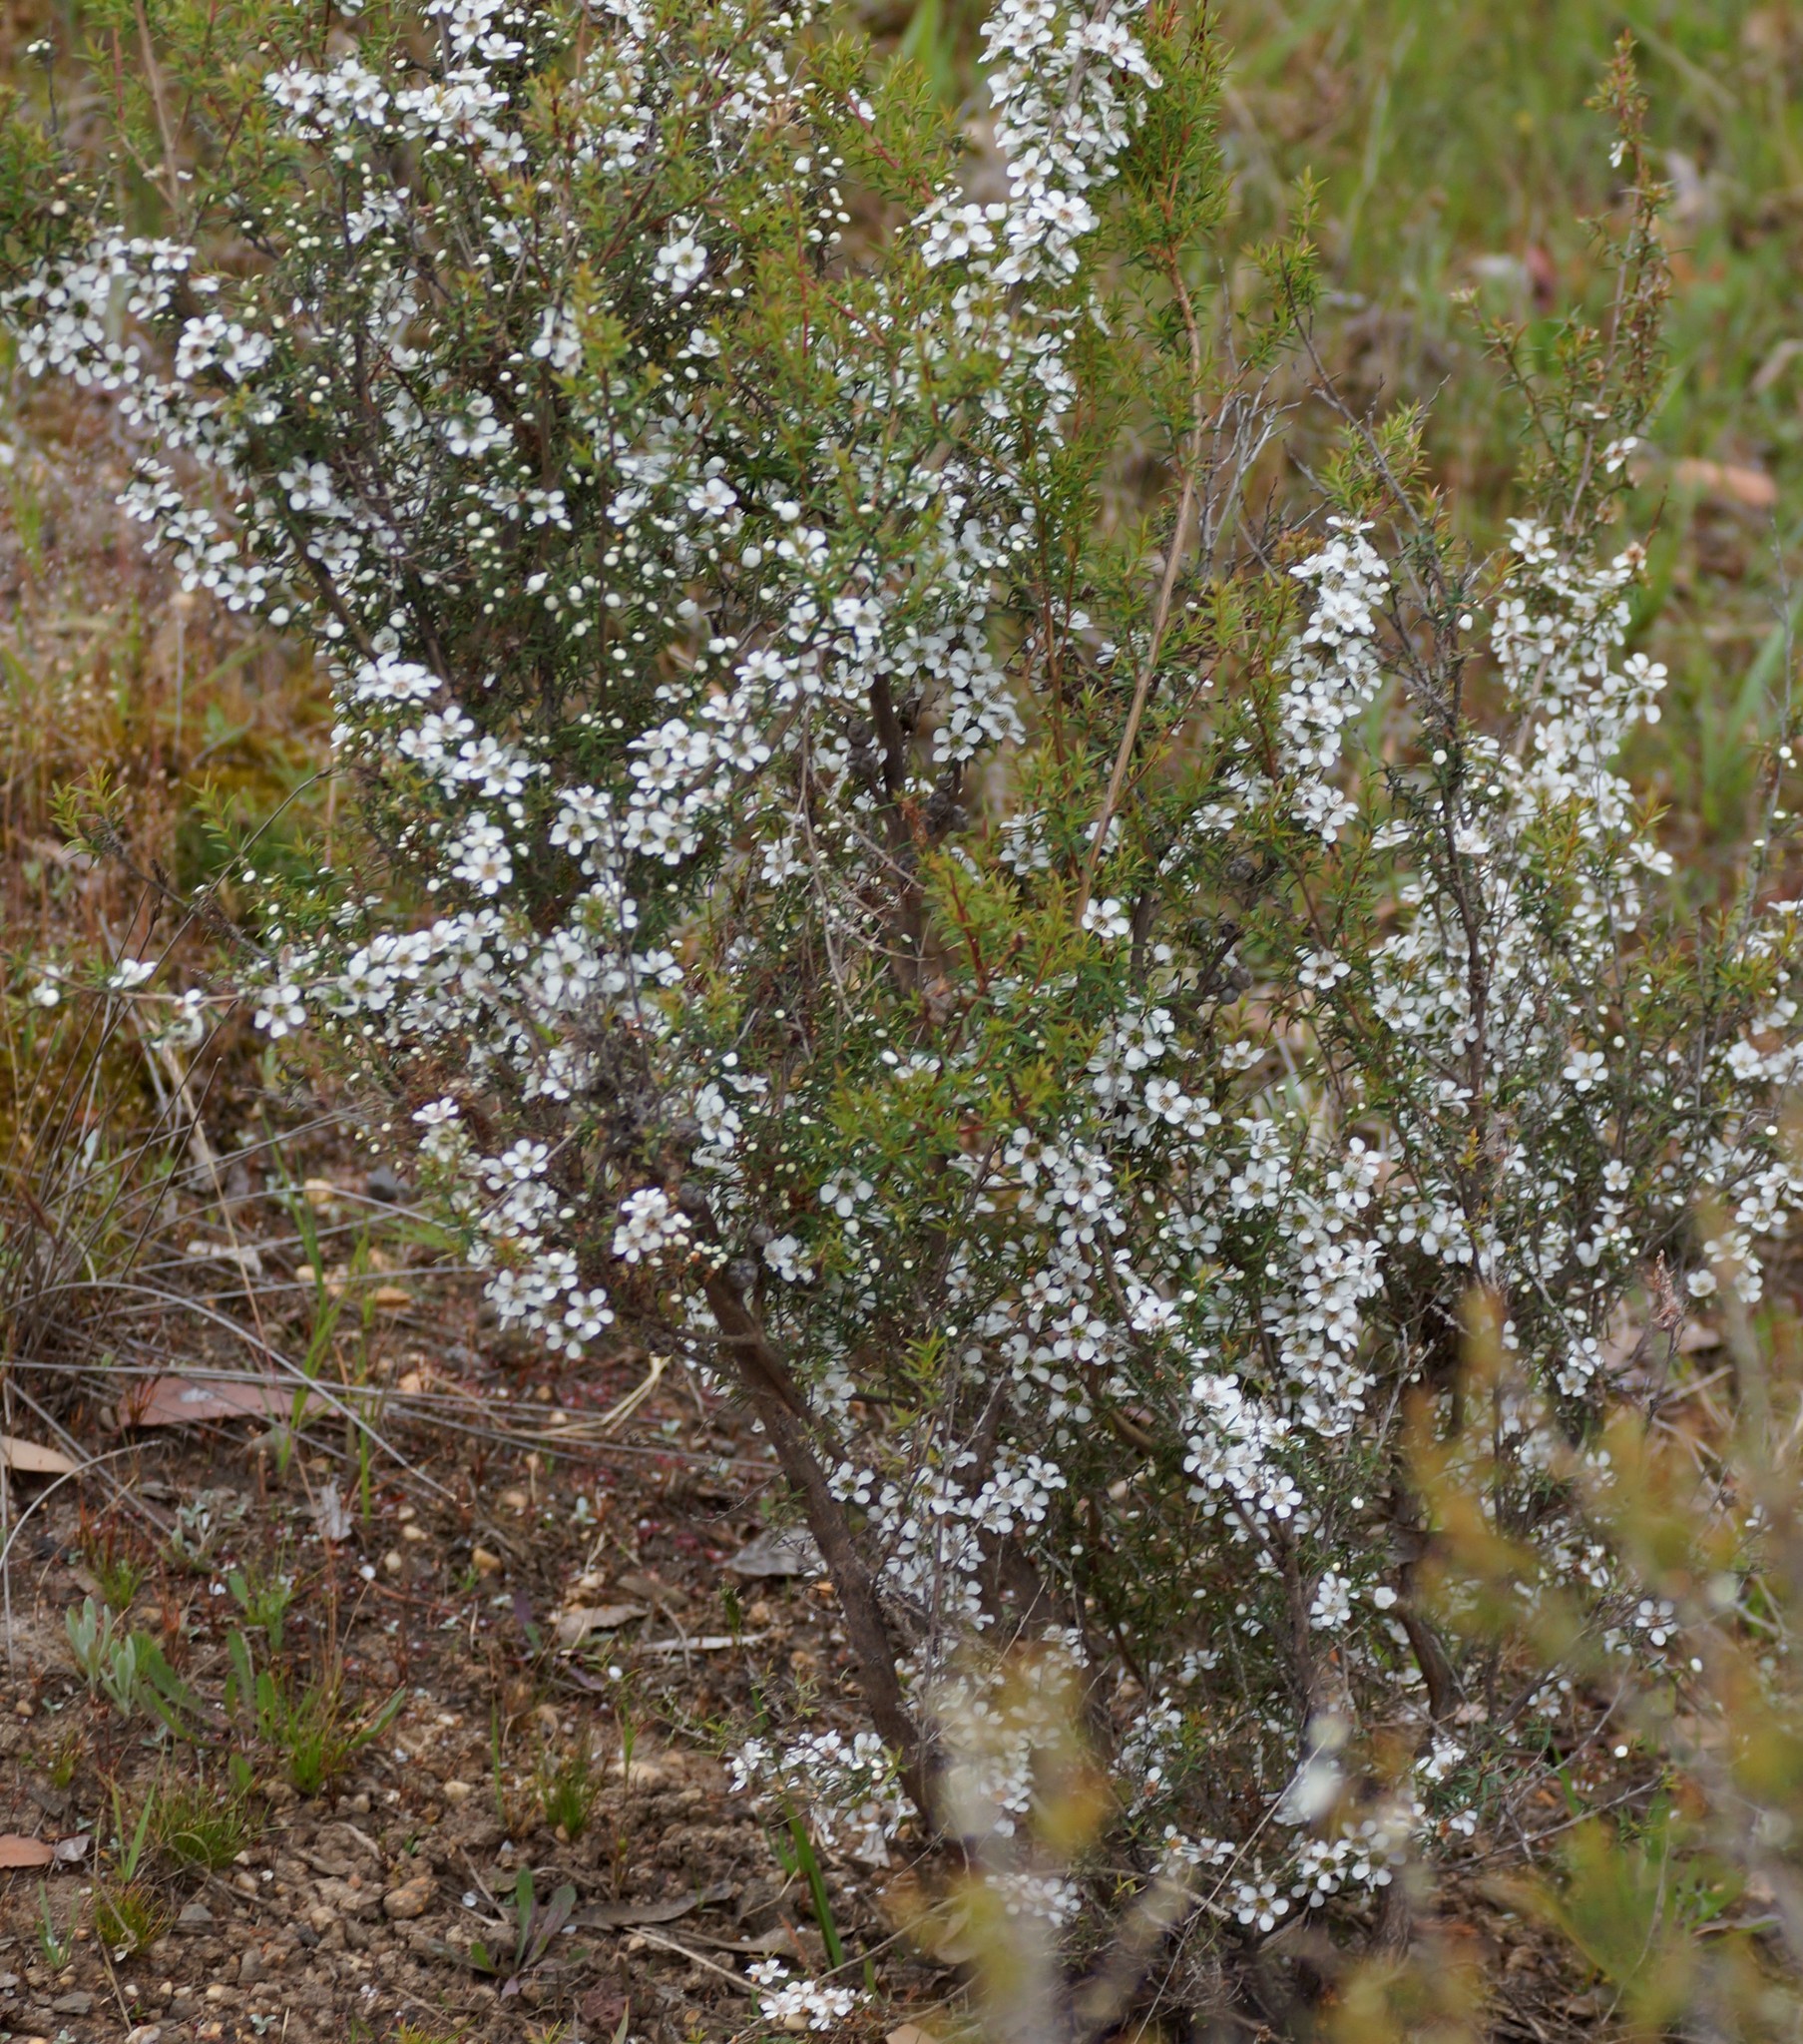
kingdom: Plantae
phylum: Tracheophyta
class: Magnoliopsida
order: Myrtales
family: Myrtaceae
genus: Leptospermum
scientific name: Leptospermum continentale
